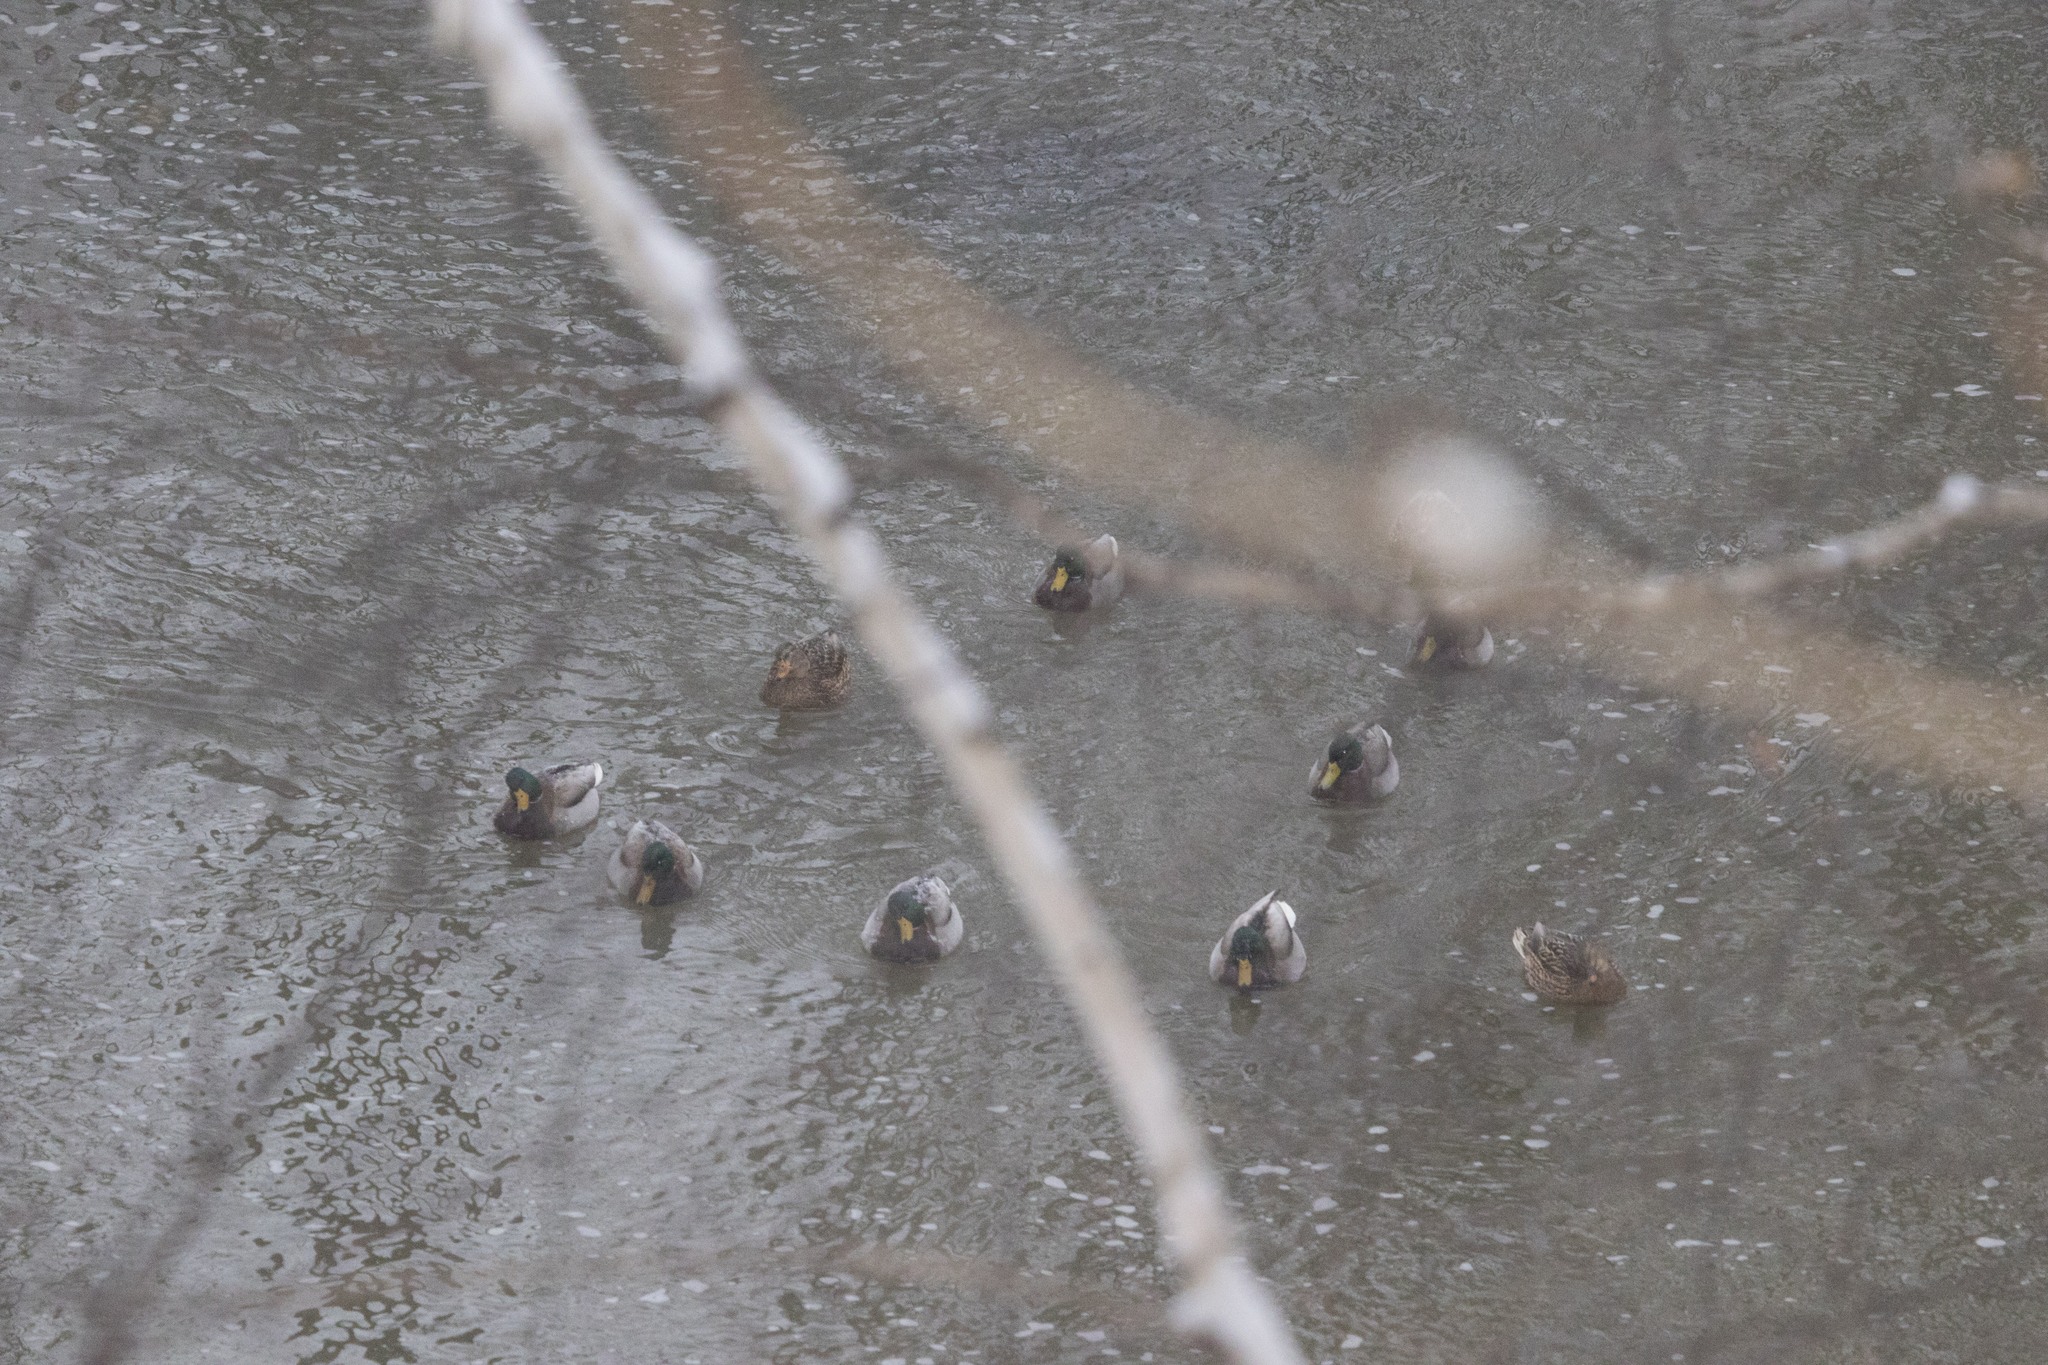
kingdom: Animalia
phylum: Chordata
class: Aves
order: Anseriformes
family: Anatidae
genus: Anas
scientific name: Anas platyrhynchos
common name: Mallard
